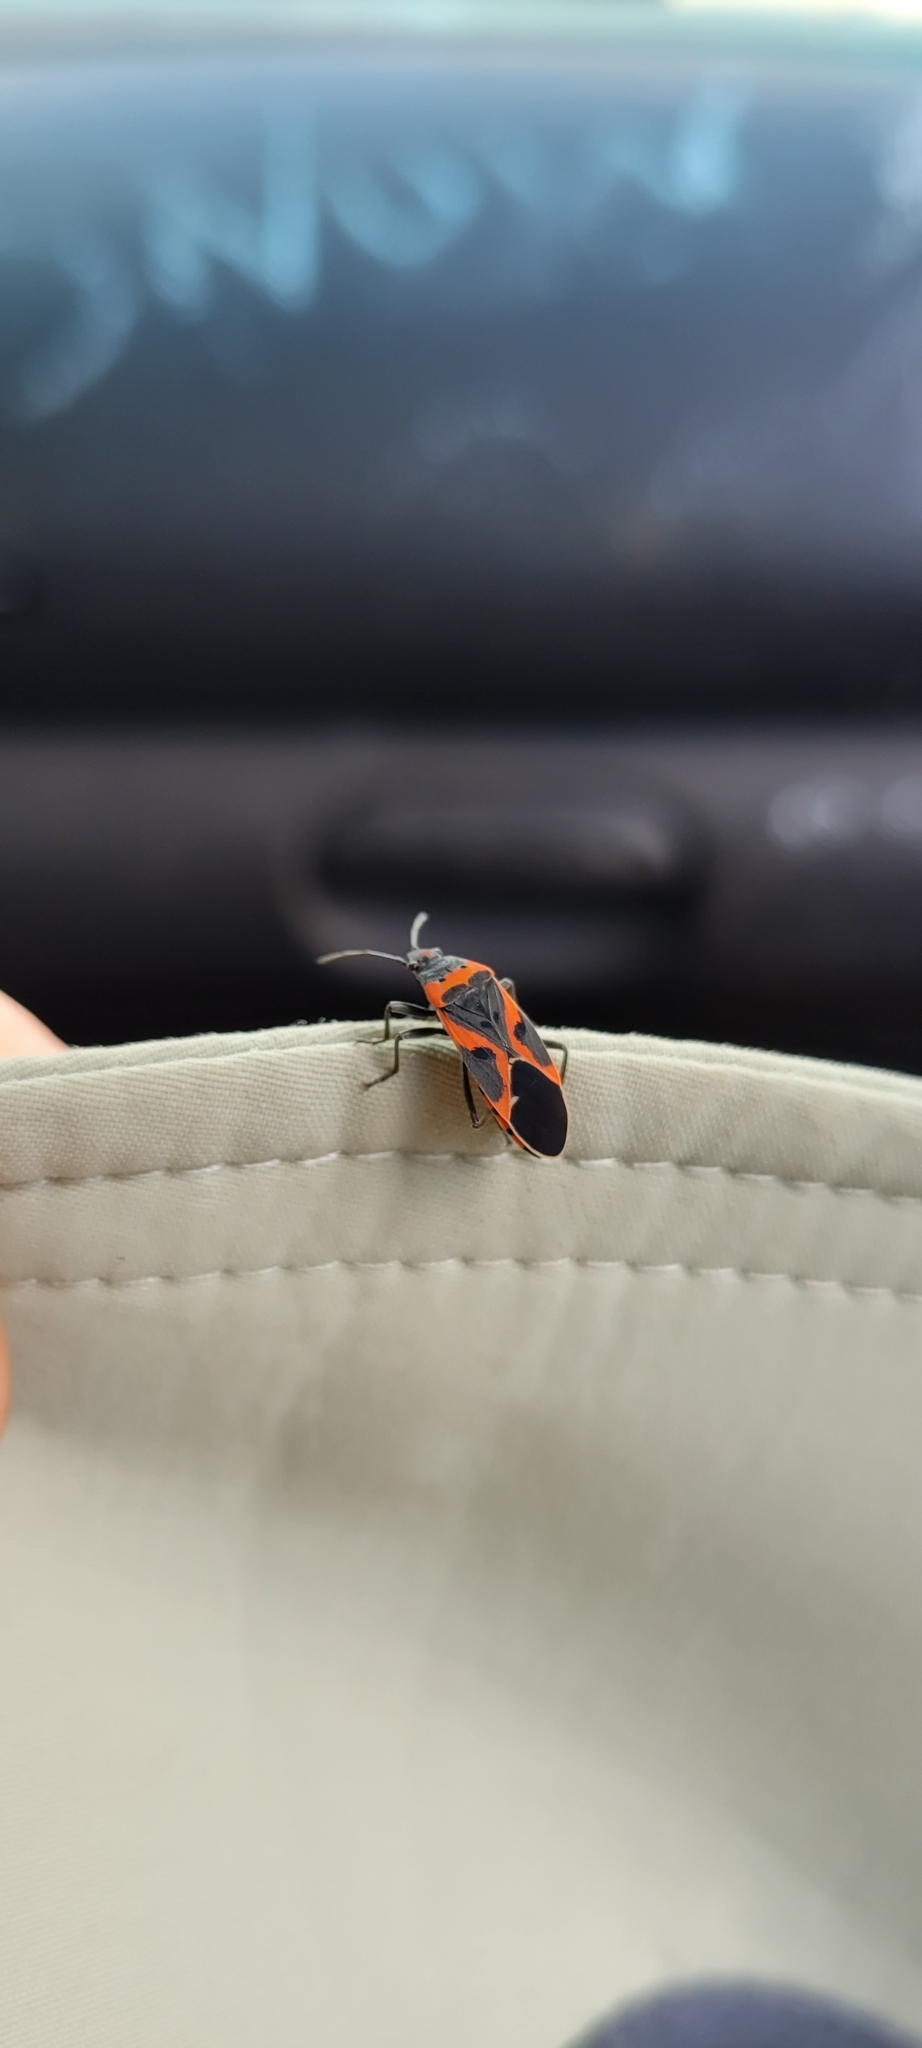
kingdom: Animalia
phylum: Arthropoda
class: Insecta
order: Hemiptera
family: Lygaeidae
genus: Lygaeus
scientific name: Lygaeus kalmii
